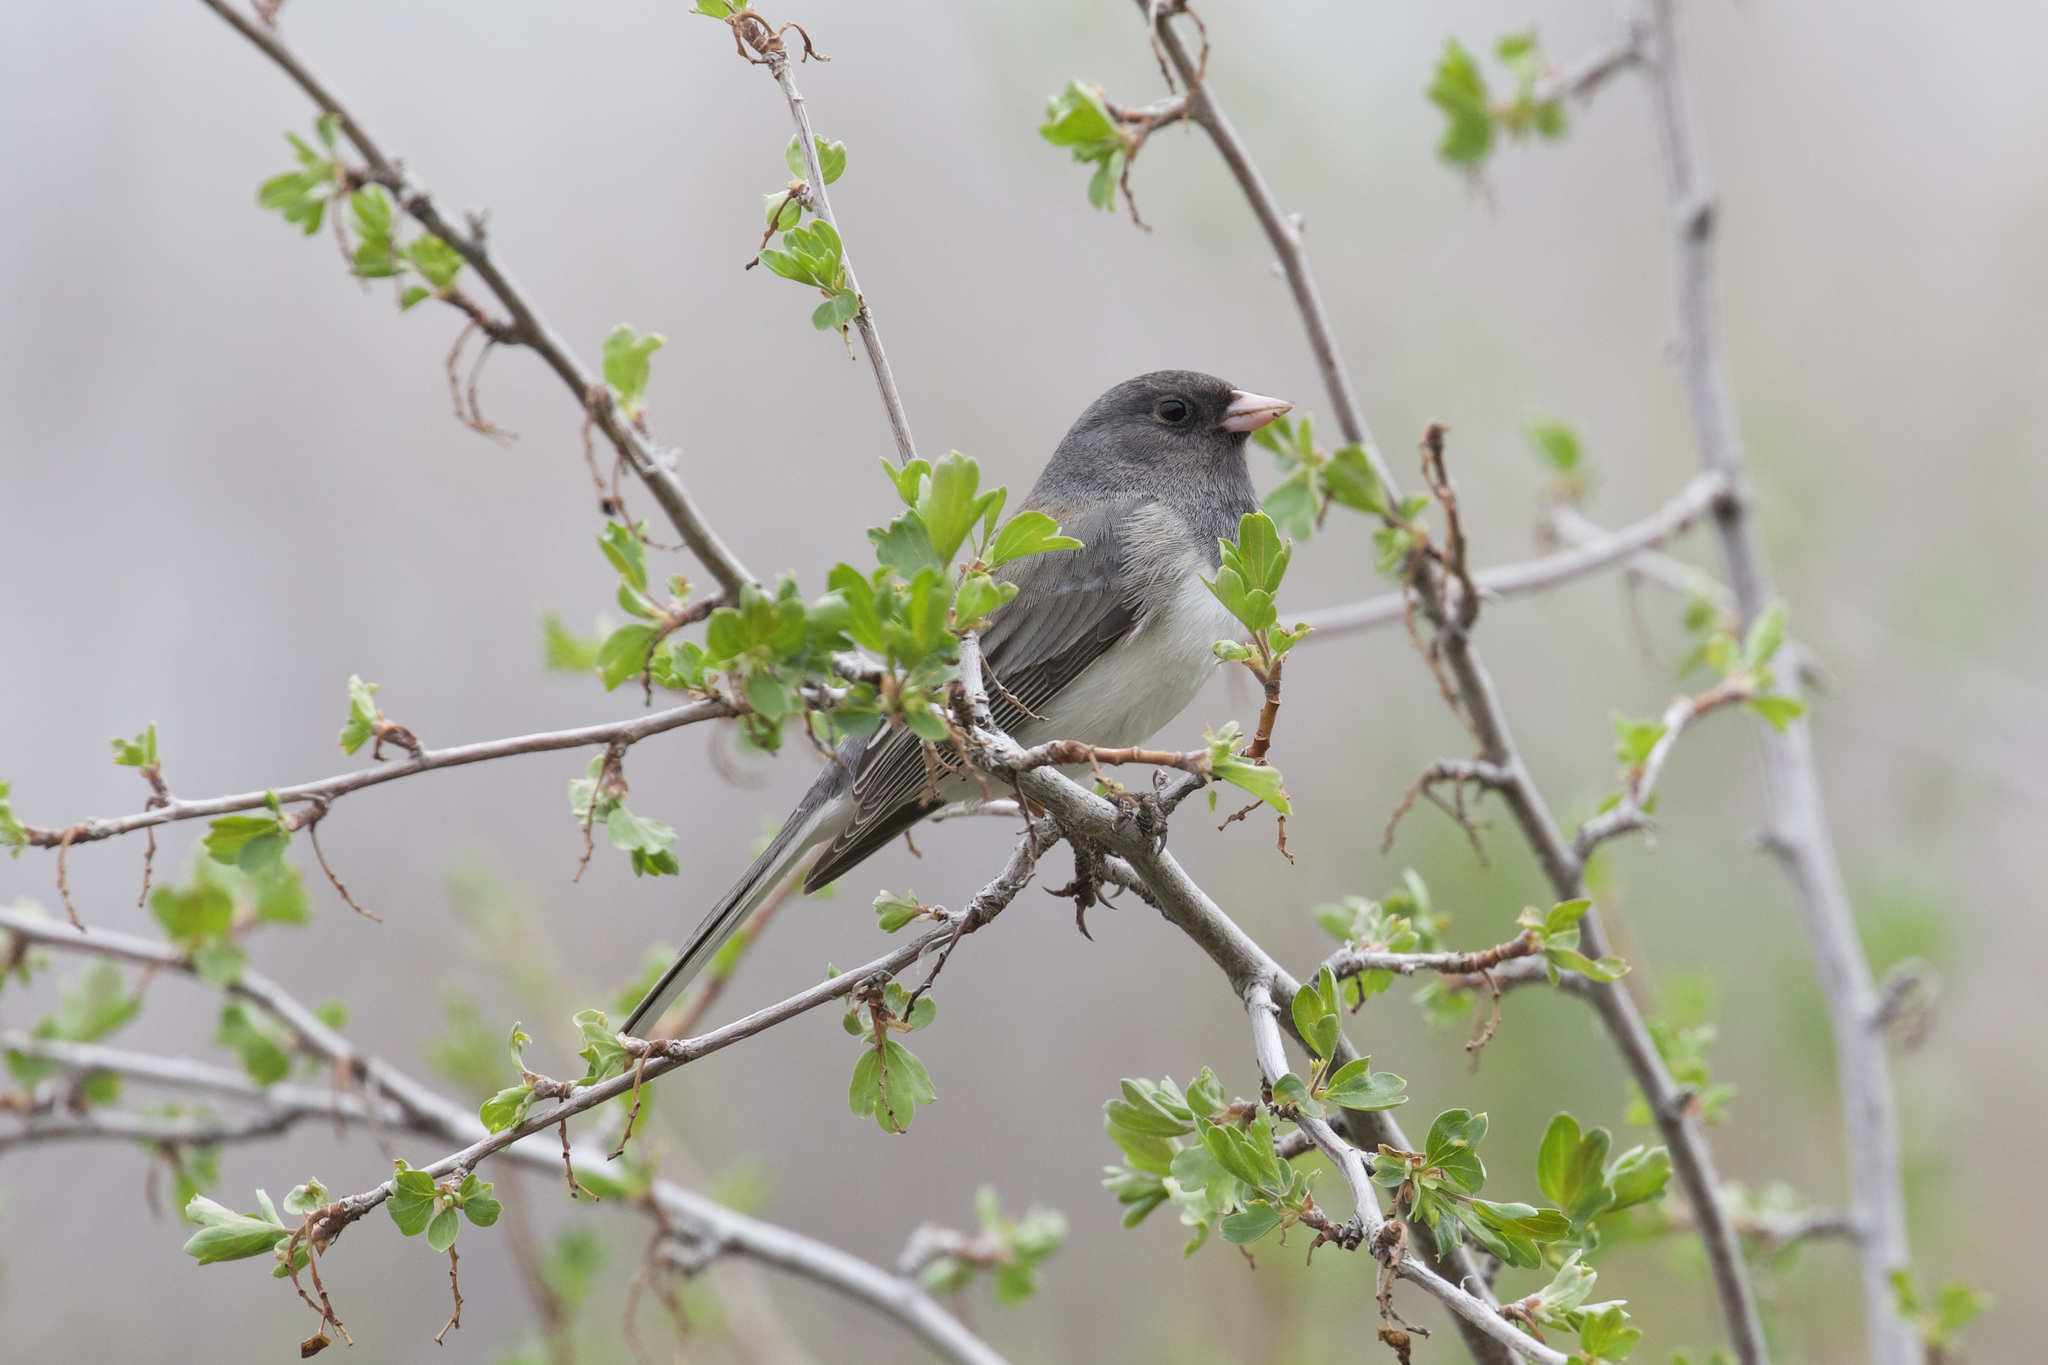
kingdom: Animalia
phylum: Chordata
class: Aves
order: Passeriformes
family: Passerellidae
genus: Junco
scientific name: Junco hyemalis
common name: Dark-eyed junco
